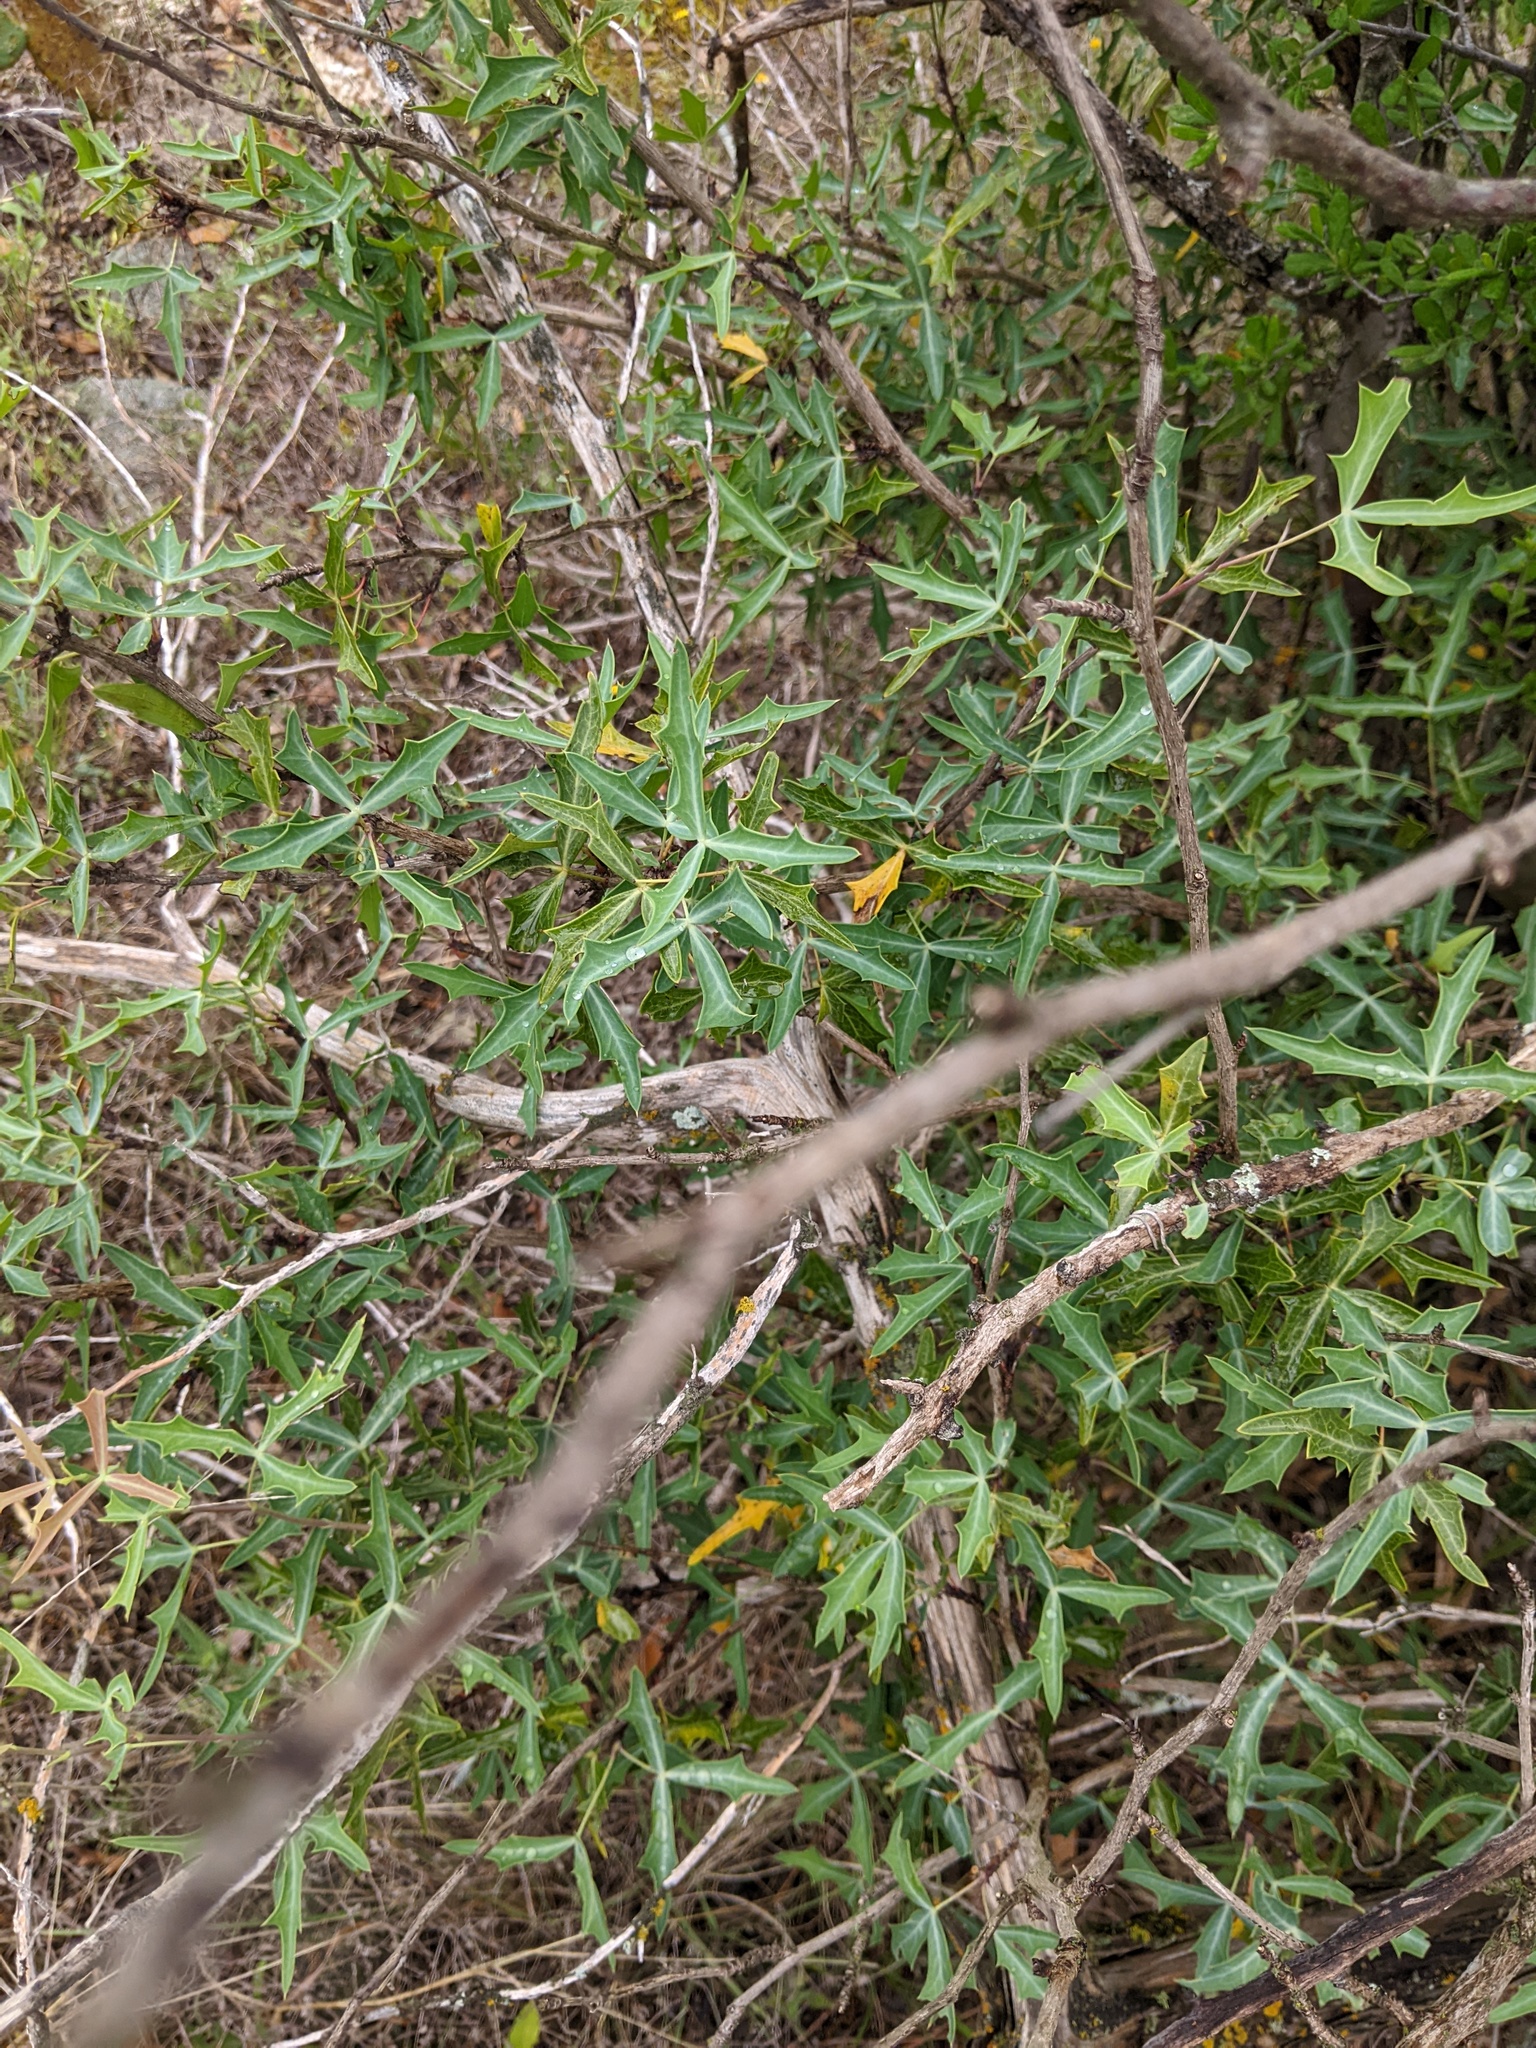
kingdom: Plantae
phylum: Tracheophyta
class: Magnoliopsida
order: Ranunculales
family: Berberidaceae
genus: Alloberberis
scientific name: Alloberberis trifoliolata
